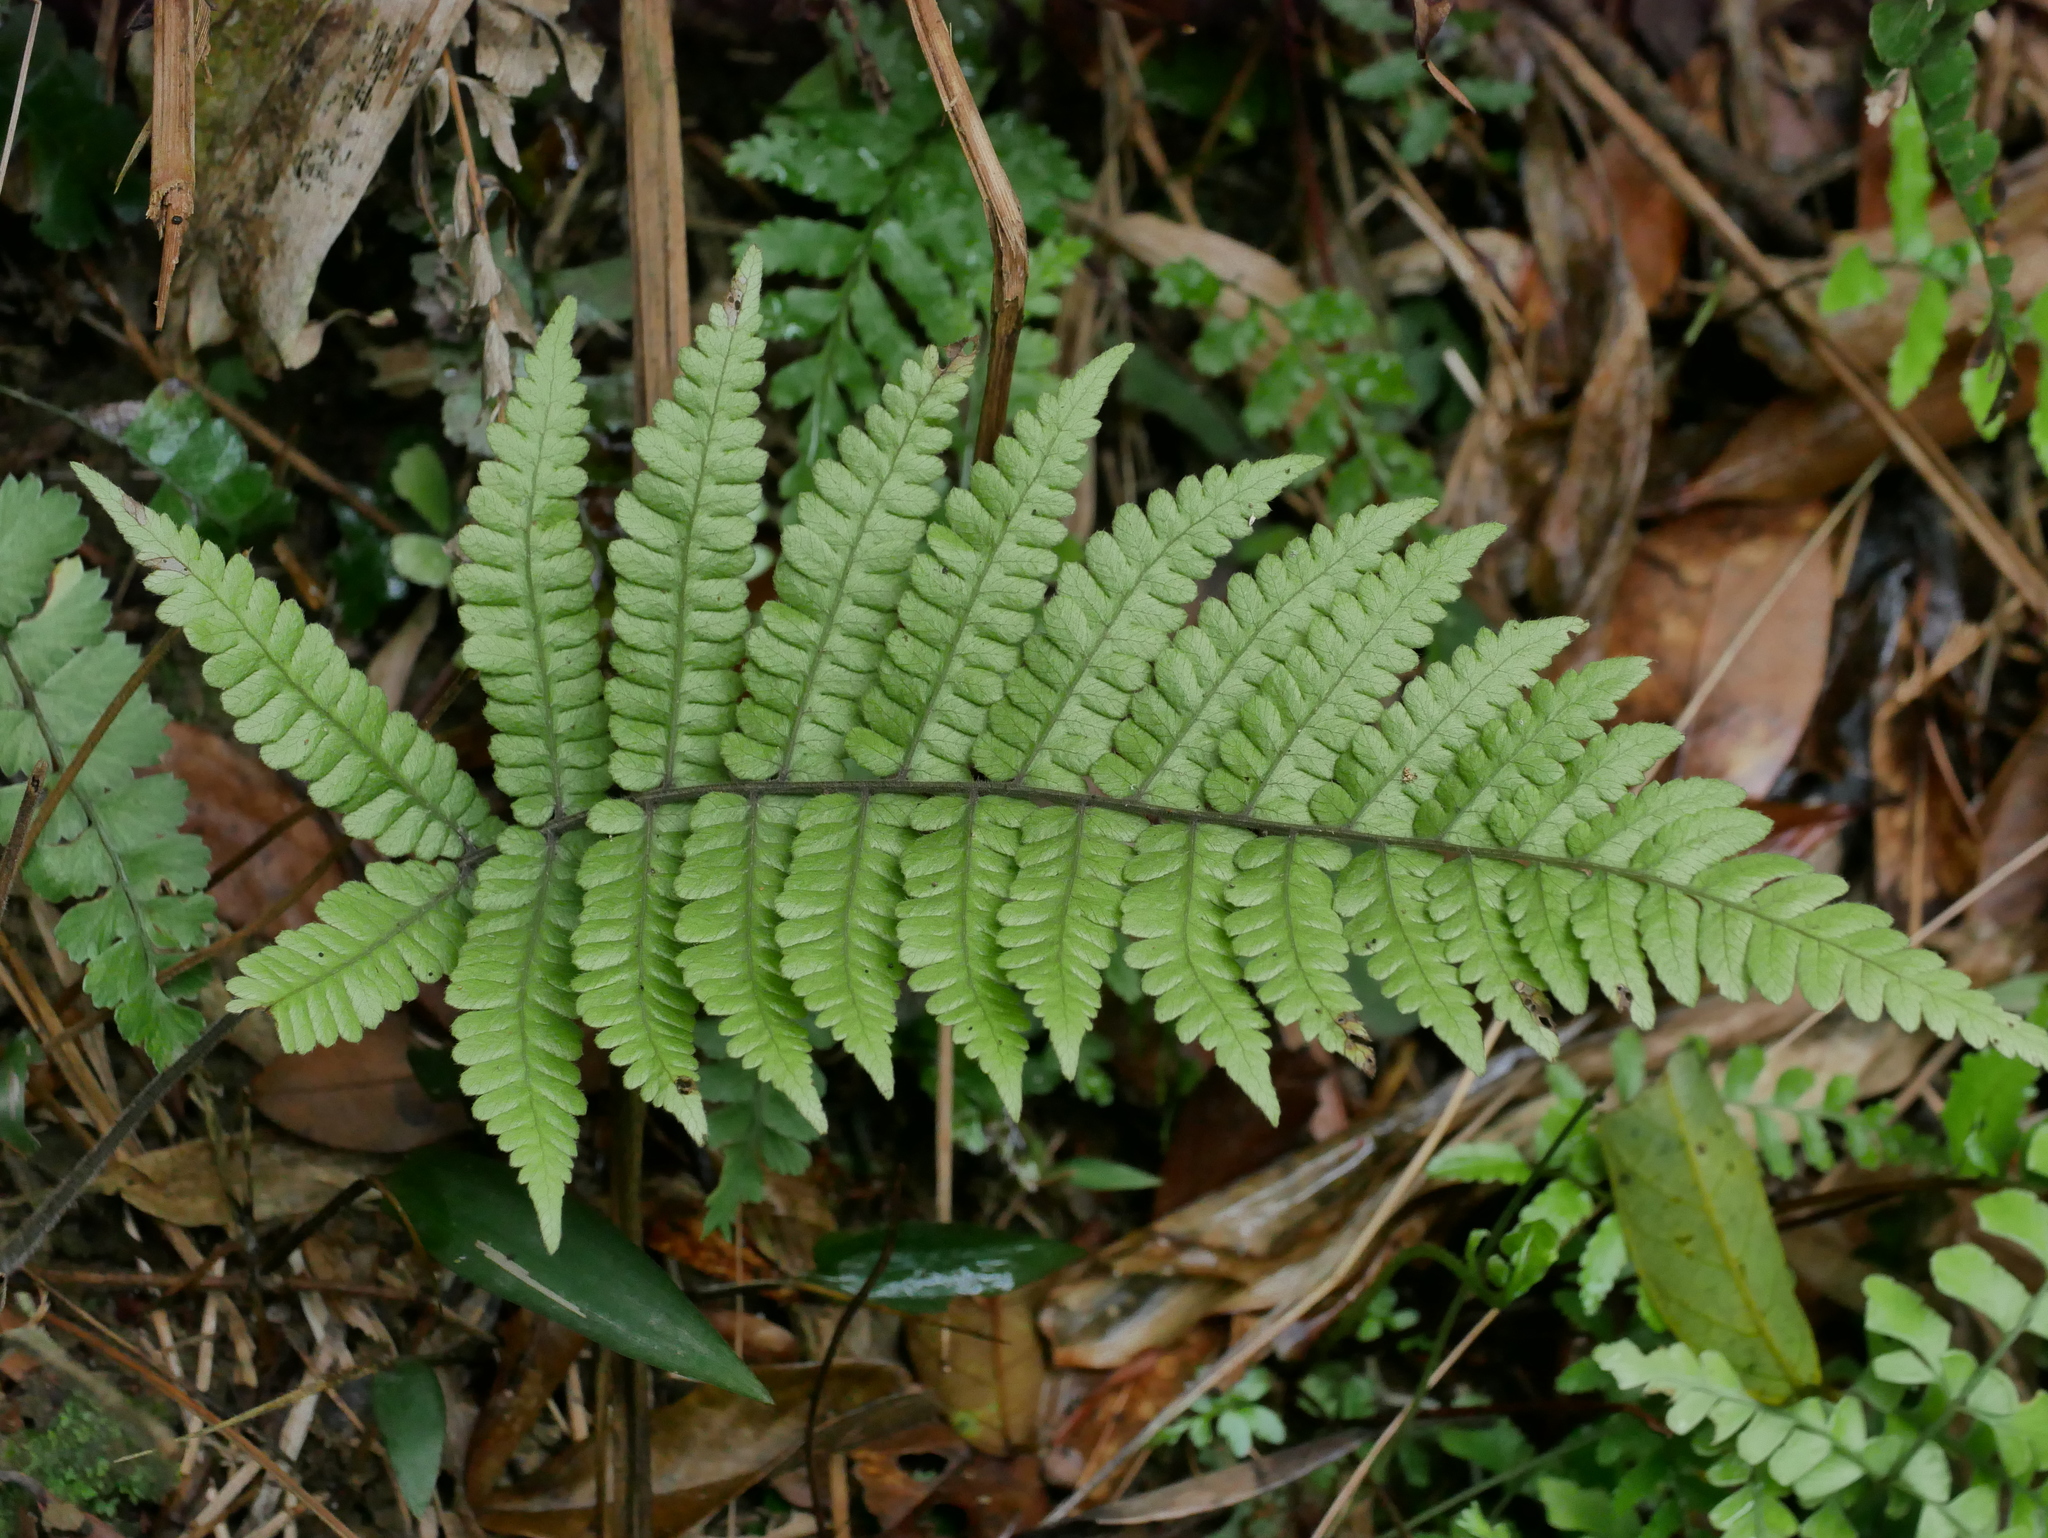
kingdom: Plantae
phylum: Tracheophyta
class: Polypodiopsida
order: Polypodiales
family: Thelypteridaceae
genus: Coryphopteris
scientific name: Coryphopteris angulariloba
